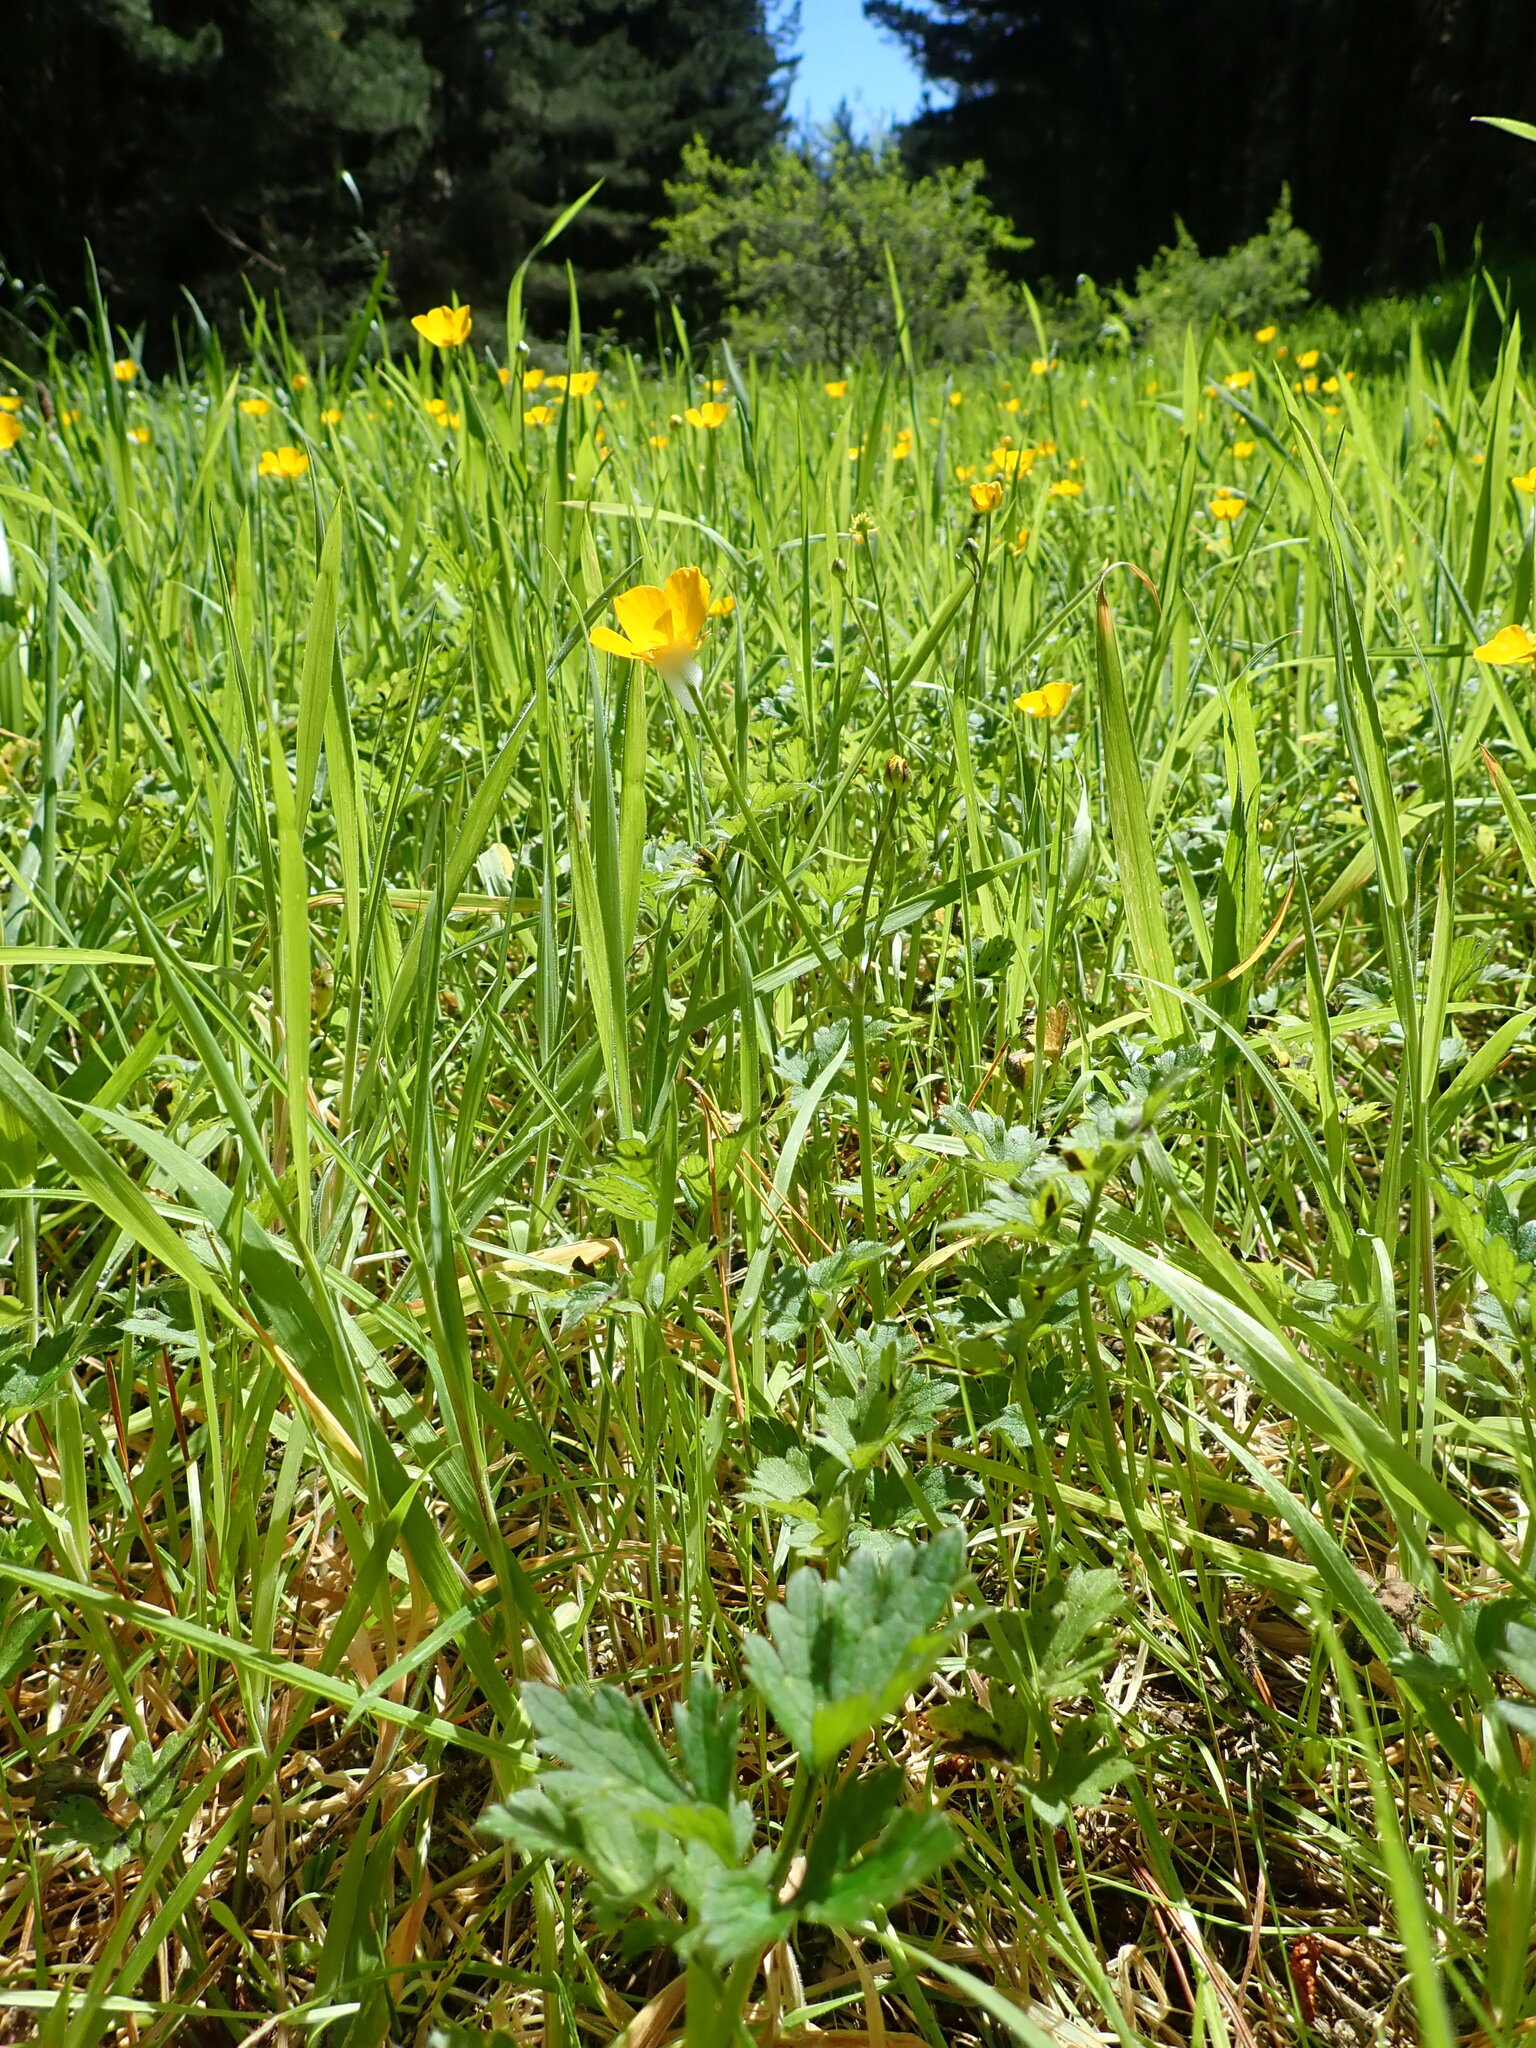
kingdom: Plantae
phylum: Tracheophyta
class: Magnoliopsida
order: Ranunculales
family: Ranunculaceae
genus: Ranunculus
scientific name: Ranunculus repens
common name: Creeping buttercup
